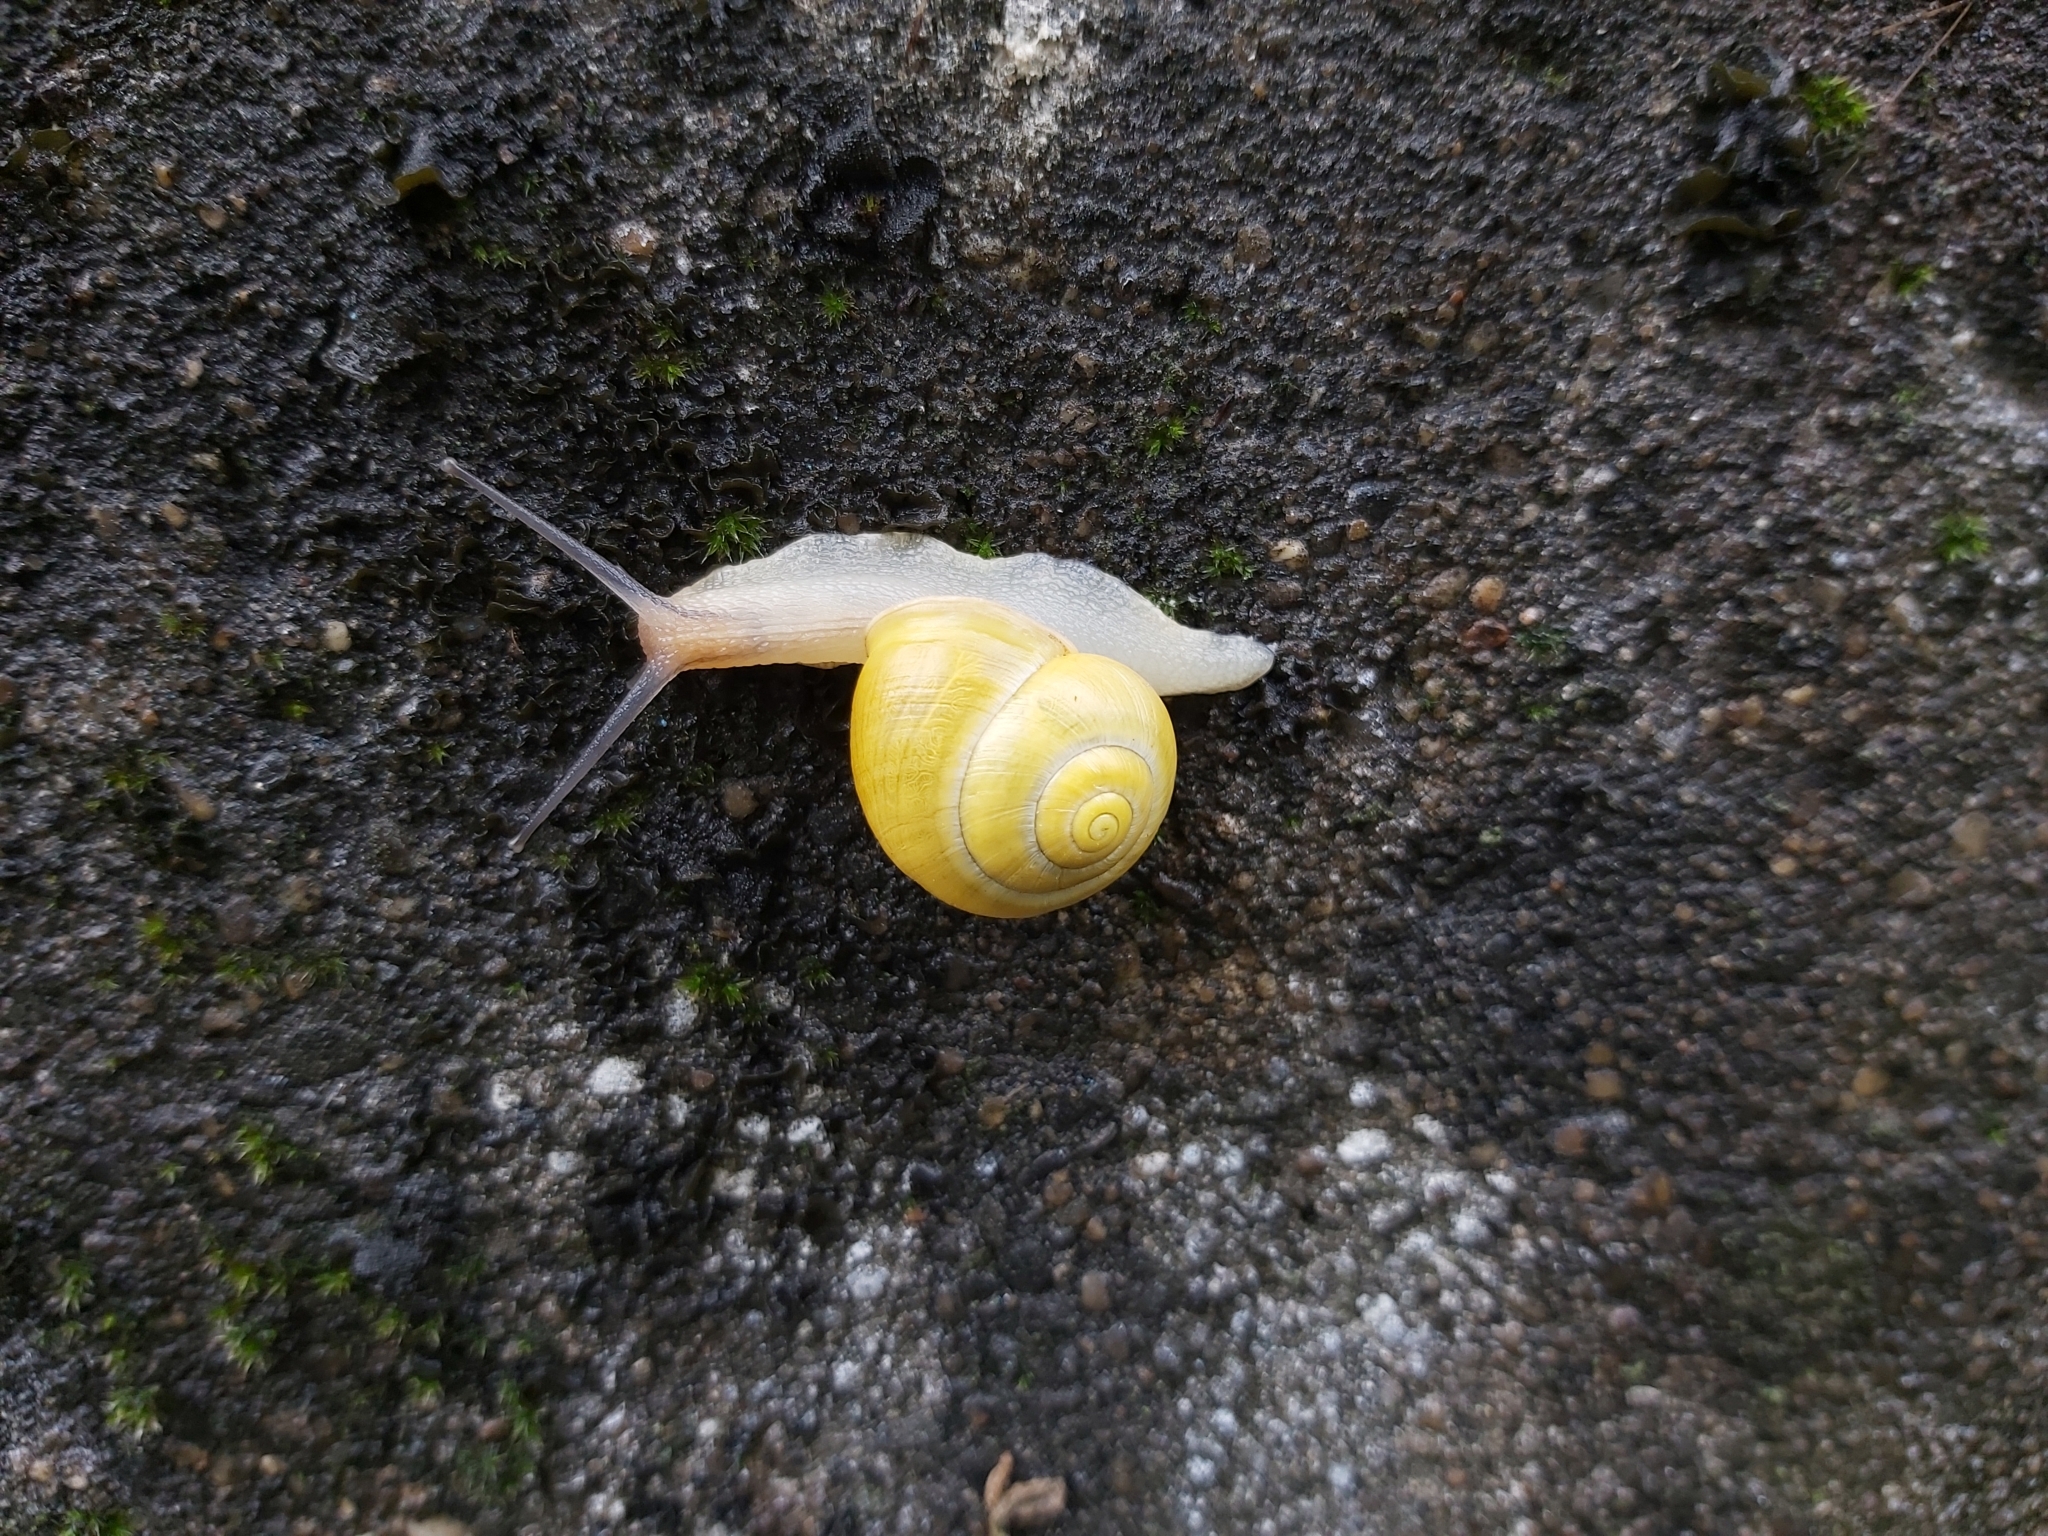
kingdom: Animalia
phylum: Mollusca
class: Gastropoda
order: Stylommatophora
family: Helicidae
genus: Cepaea
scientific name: Cepaea hortensis
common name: White-lip gardensnail
